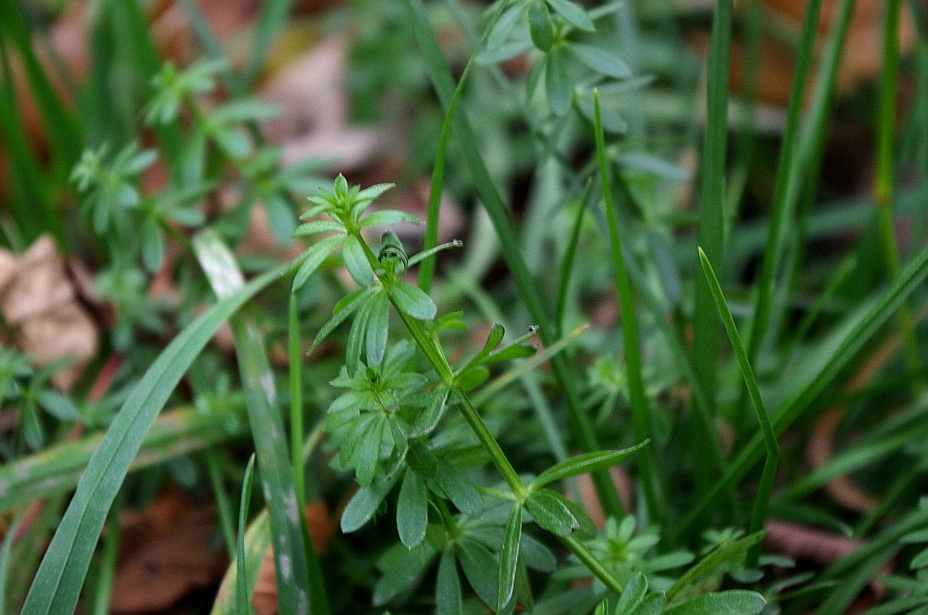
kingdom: Plantae
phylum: Tracheophyta
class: Magnoliopsida
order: Gentianales
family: Rubiaceae
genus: Galium
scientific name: Galium mollugo
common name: Hedge bedstraw
